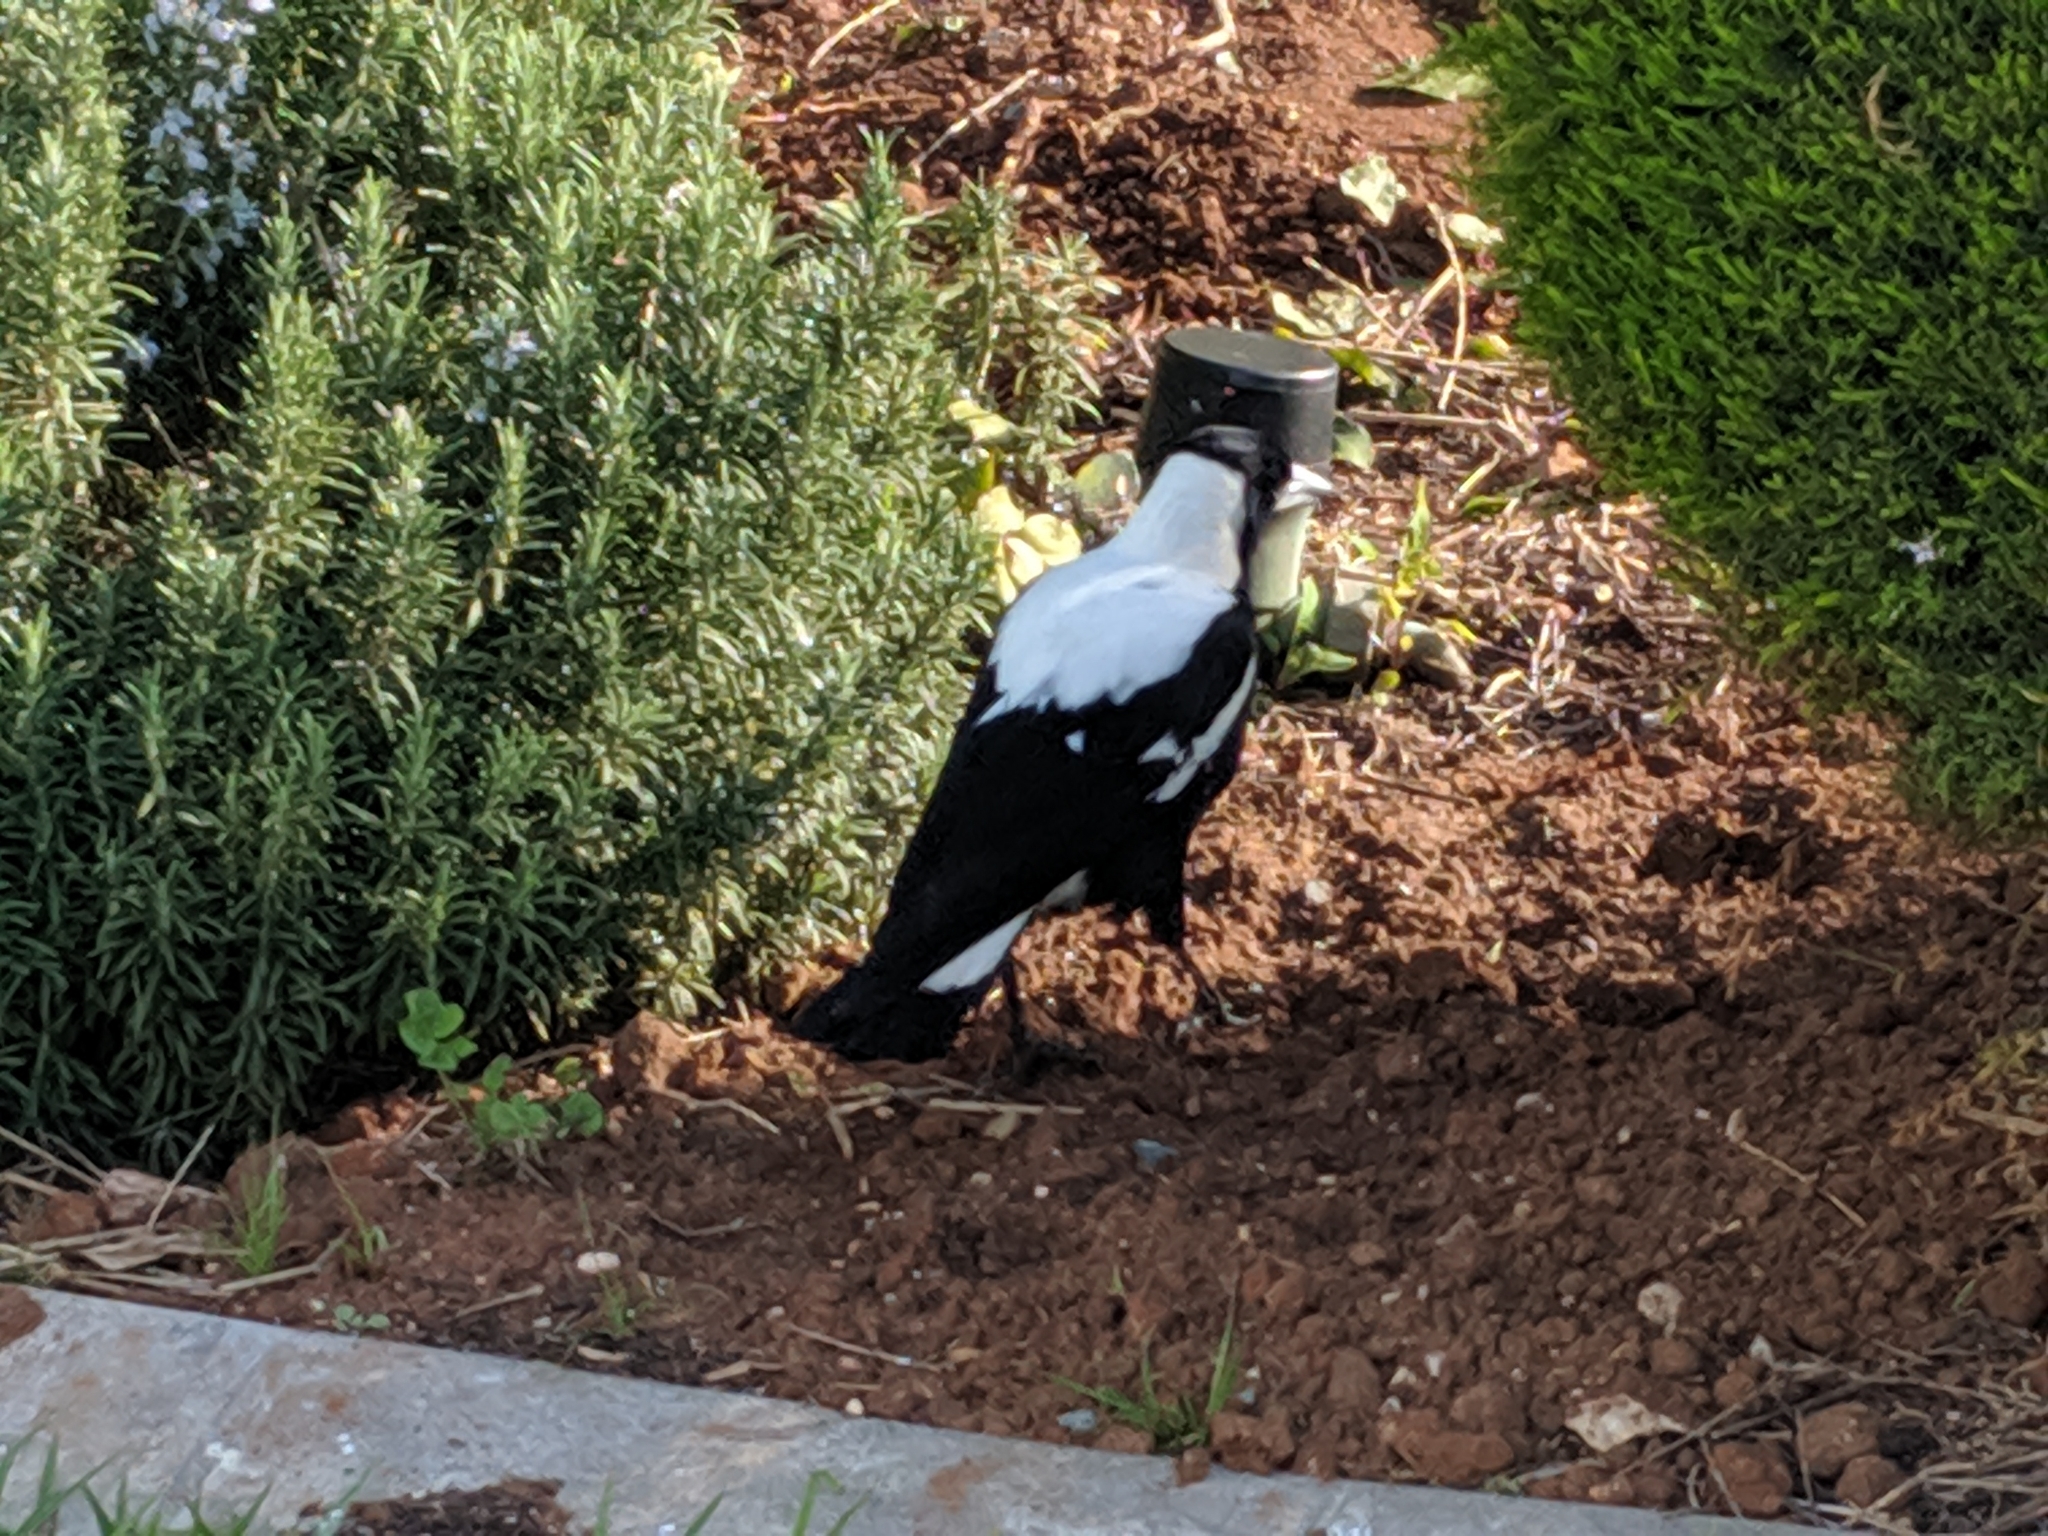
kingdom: Animalia
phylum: Chordata
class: Aves
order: Passeriformes
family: Cracticidae
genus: Gymnorhina
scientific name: Gymnorhina tibicen
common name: Australian magpie
